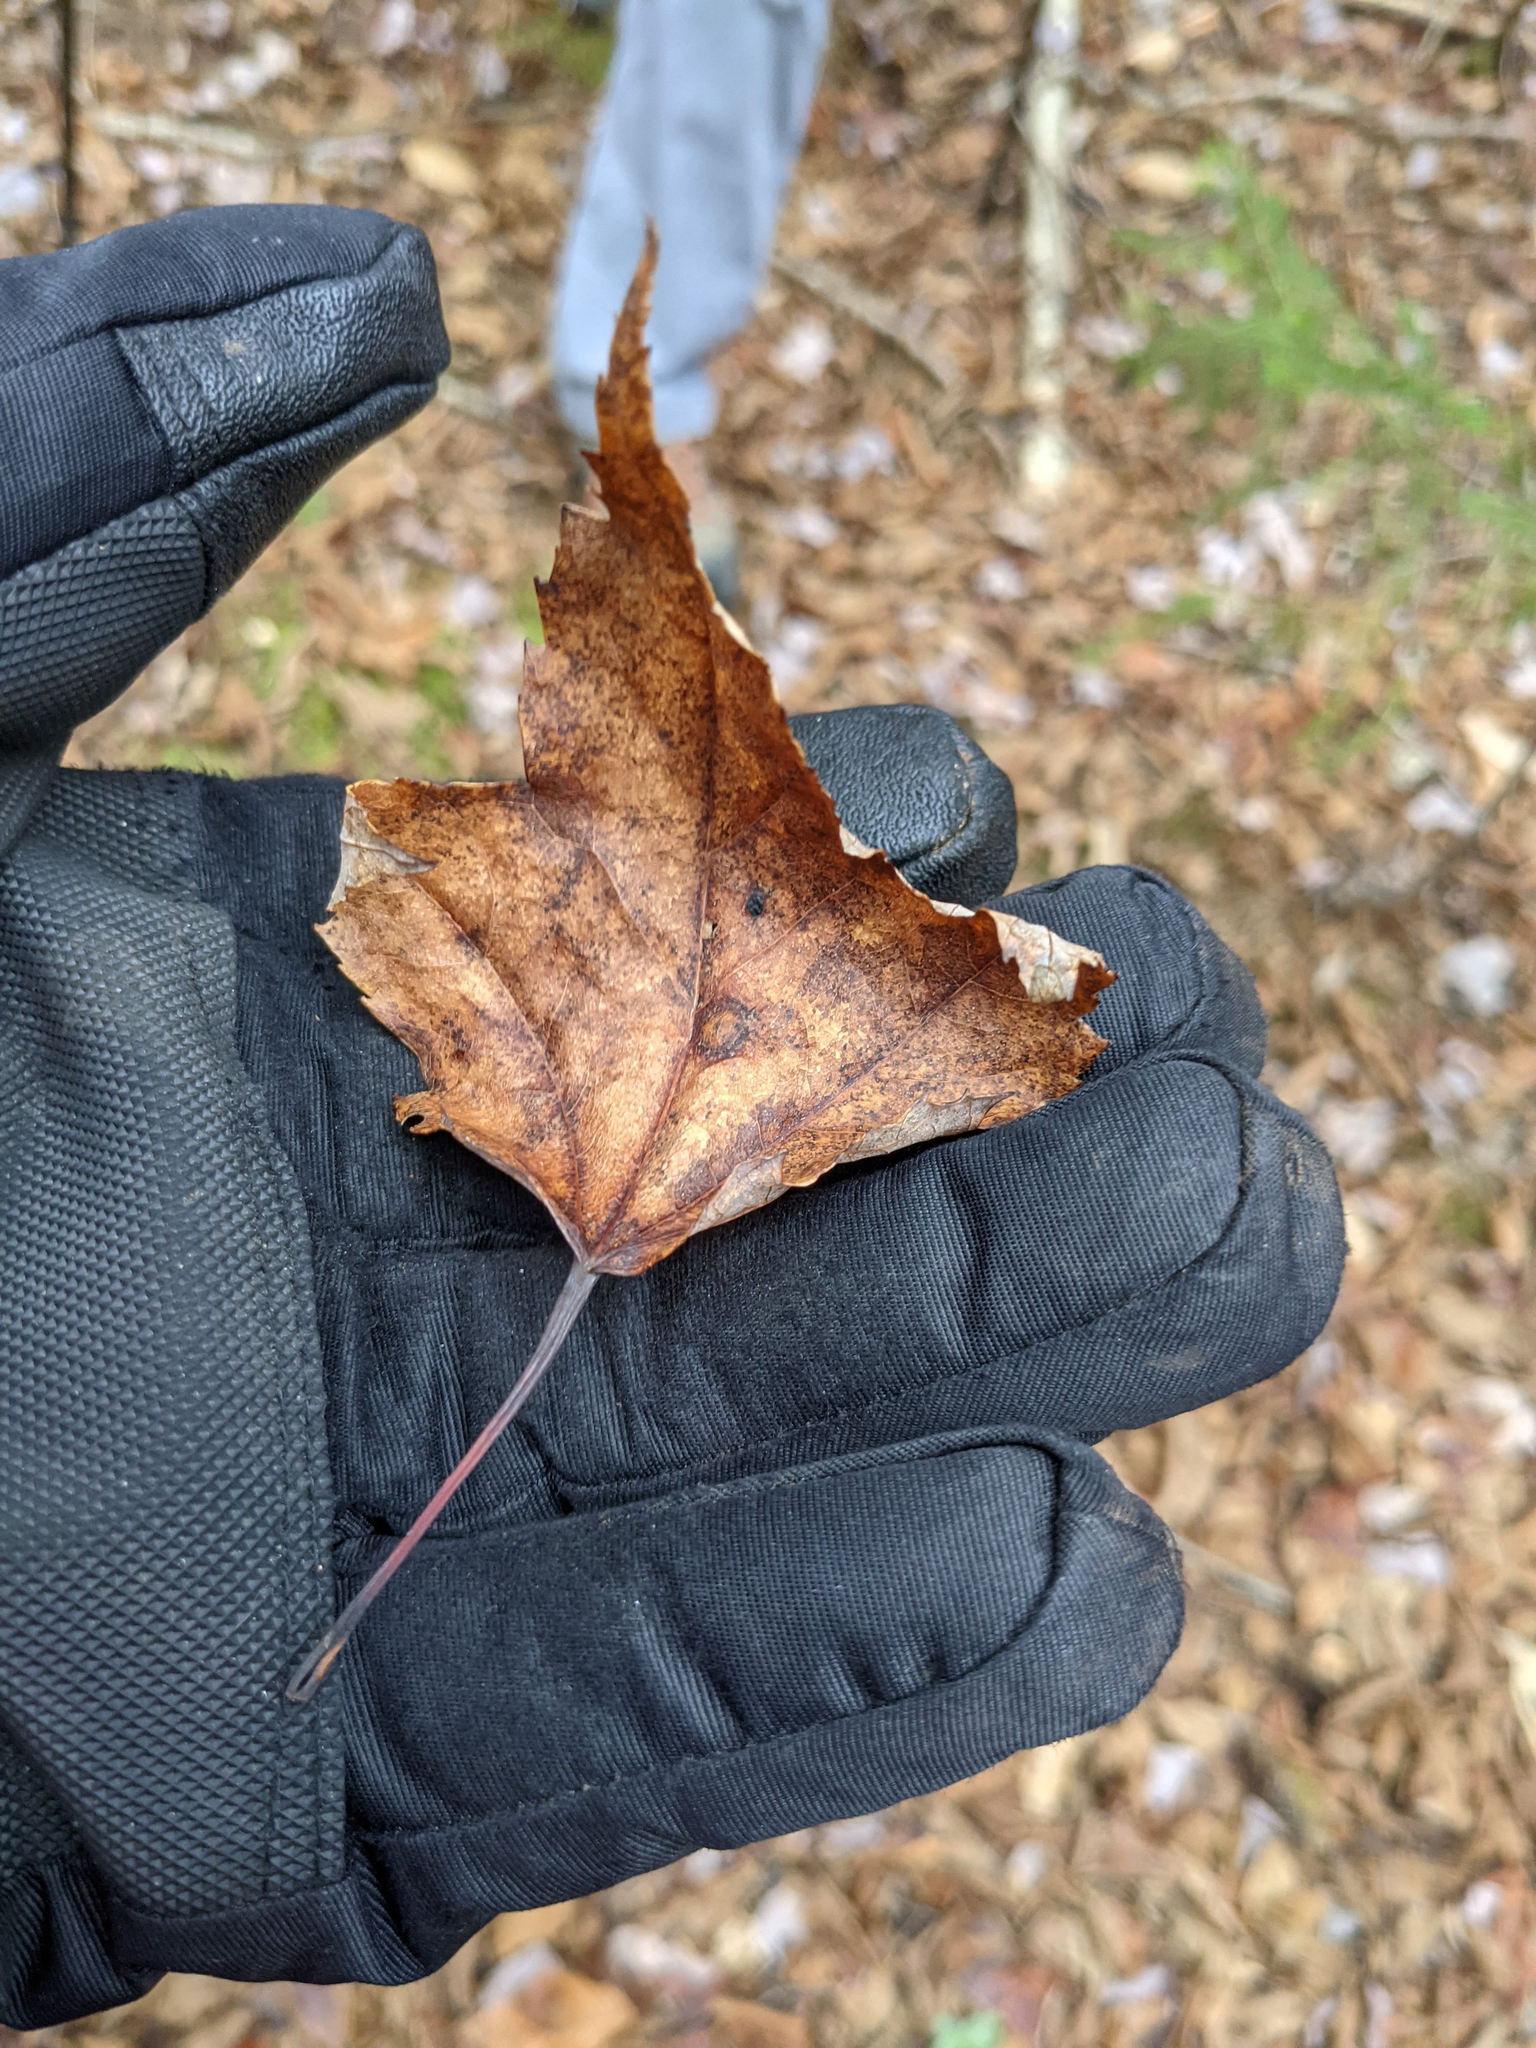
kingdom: Plantae
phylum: Tracheophyta
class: Magnoliopsida
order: Sapindales
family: Sapindaceae
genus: Acer
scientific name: Acer rubrum
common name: Red maple
